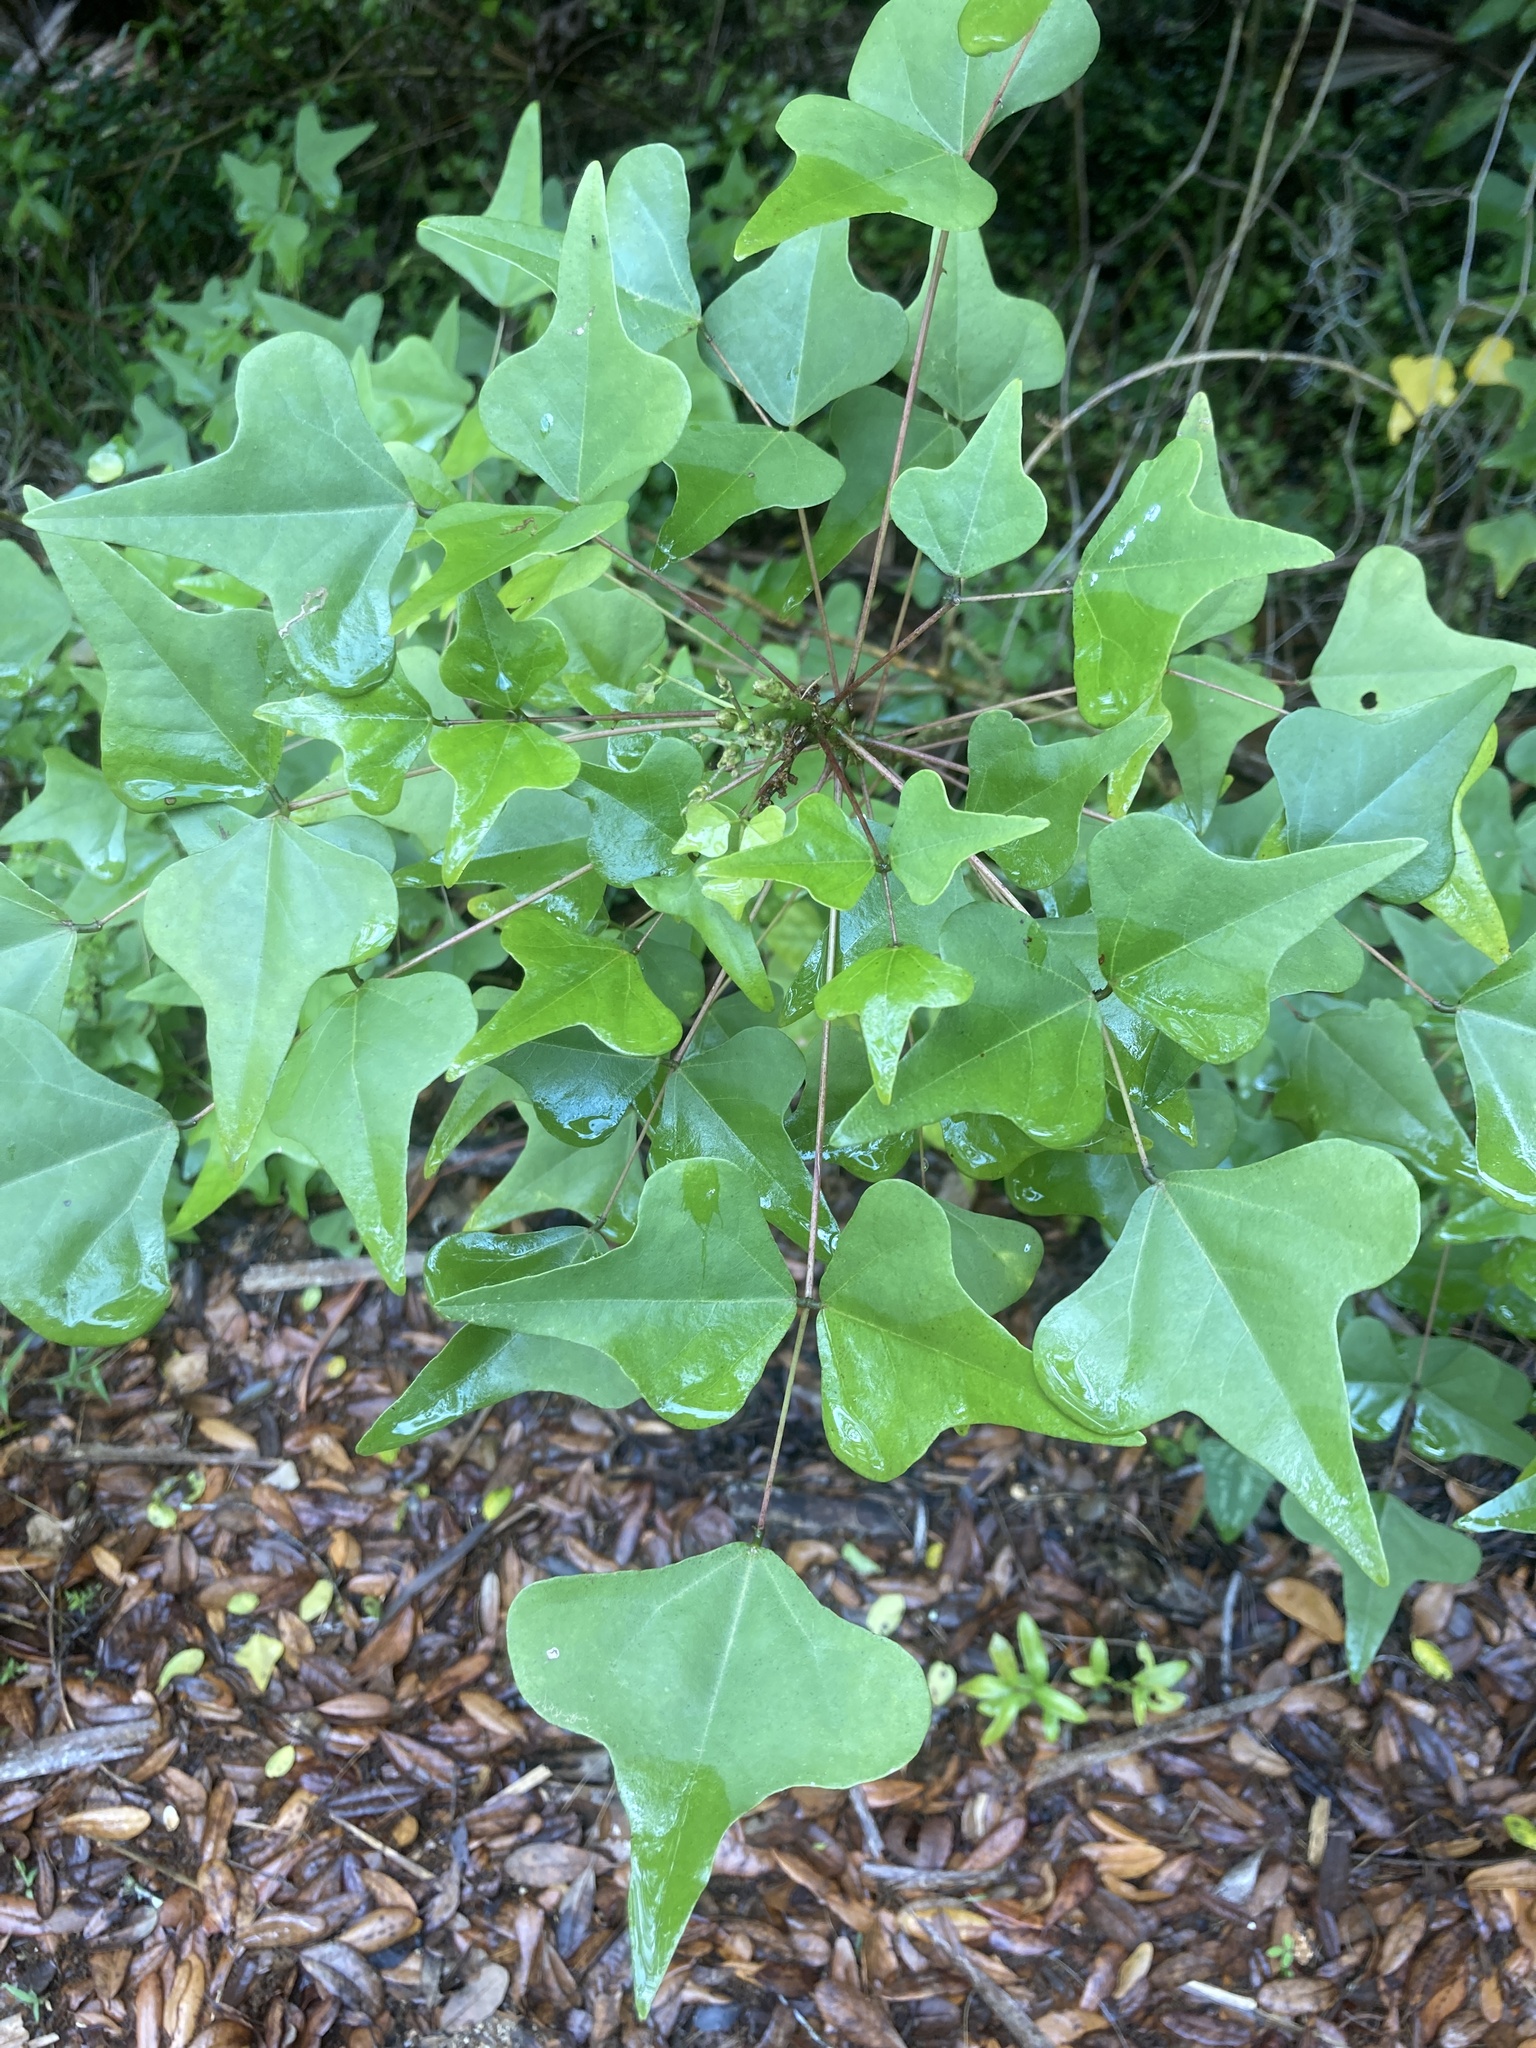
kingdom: Plantae
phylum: Tracheophyta
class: Magnoliopsida
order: Fabales
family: Fabaceae
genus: Erythrina
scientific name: Erythrina herbacea
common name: Coral-bean
